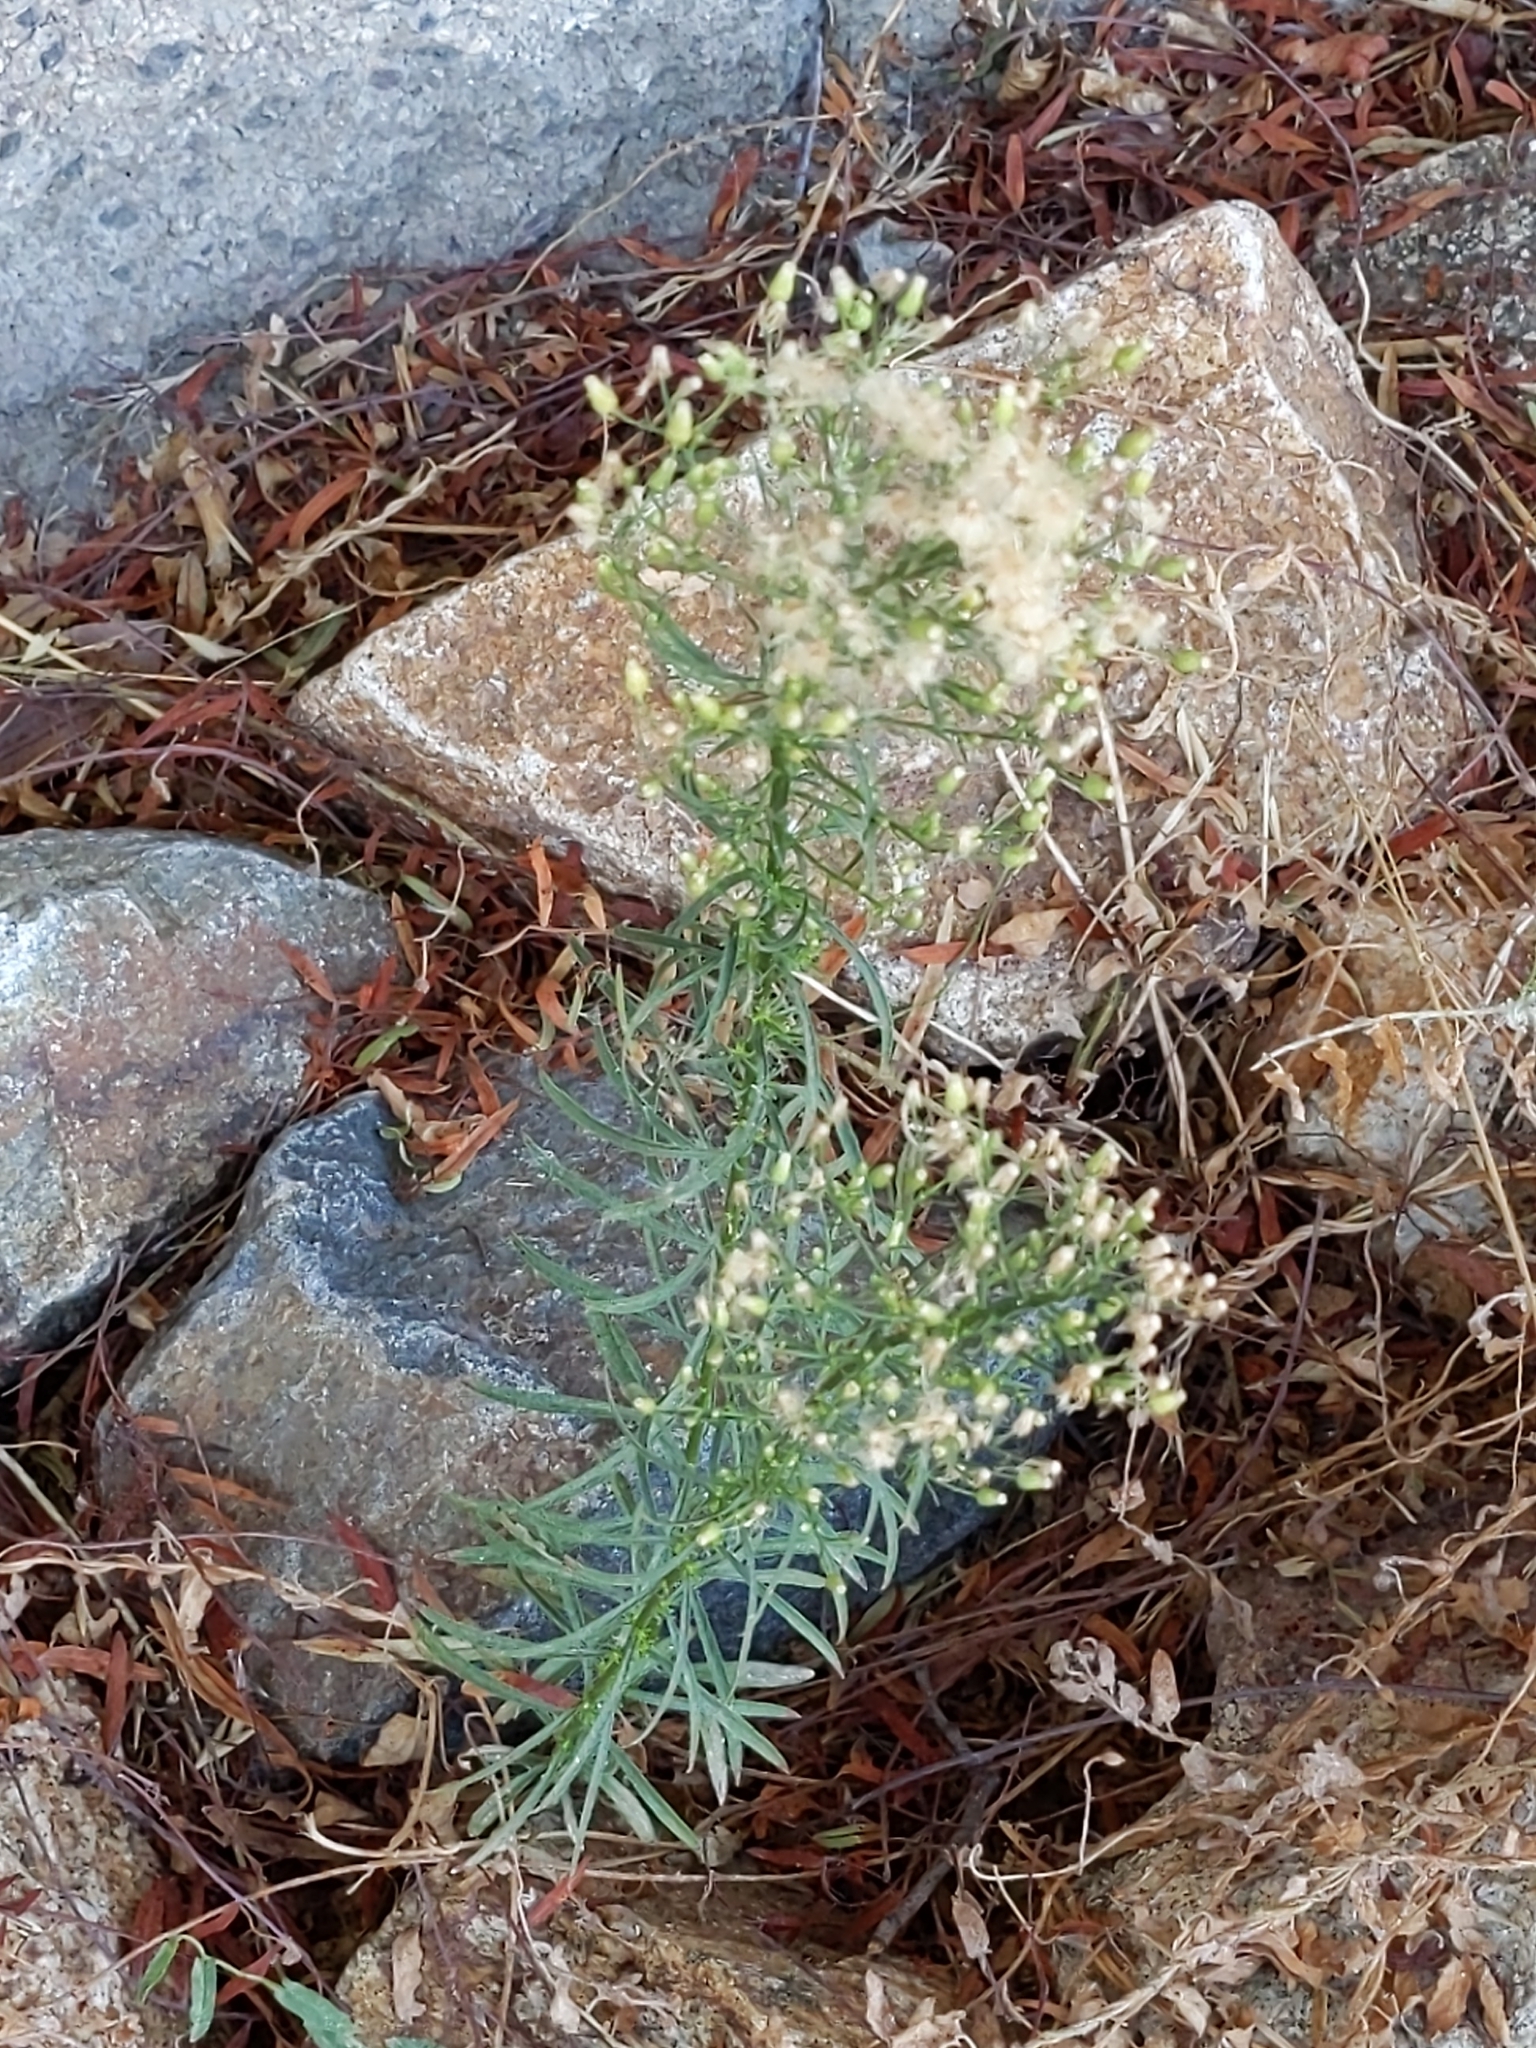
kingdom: Plantae
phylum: Tracheophyta
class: Magnoliopsida
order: Asterales
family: Asteraceae
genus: Erigeron
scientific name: Erigeron canadensis
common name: Canadian fleabane
